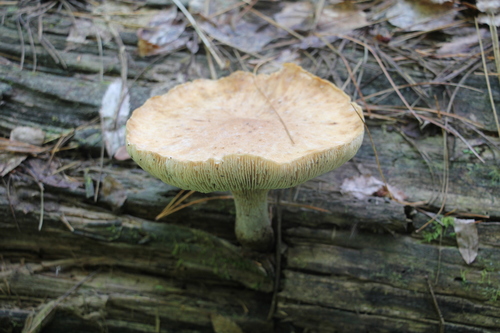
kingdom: Fungi
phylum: Basidiomycota
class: Agaricomycetes
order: Gloeophyllales
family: Gloeophyllaceae
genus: Neolentinus
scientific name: Neolentinus cyathiformis
